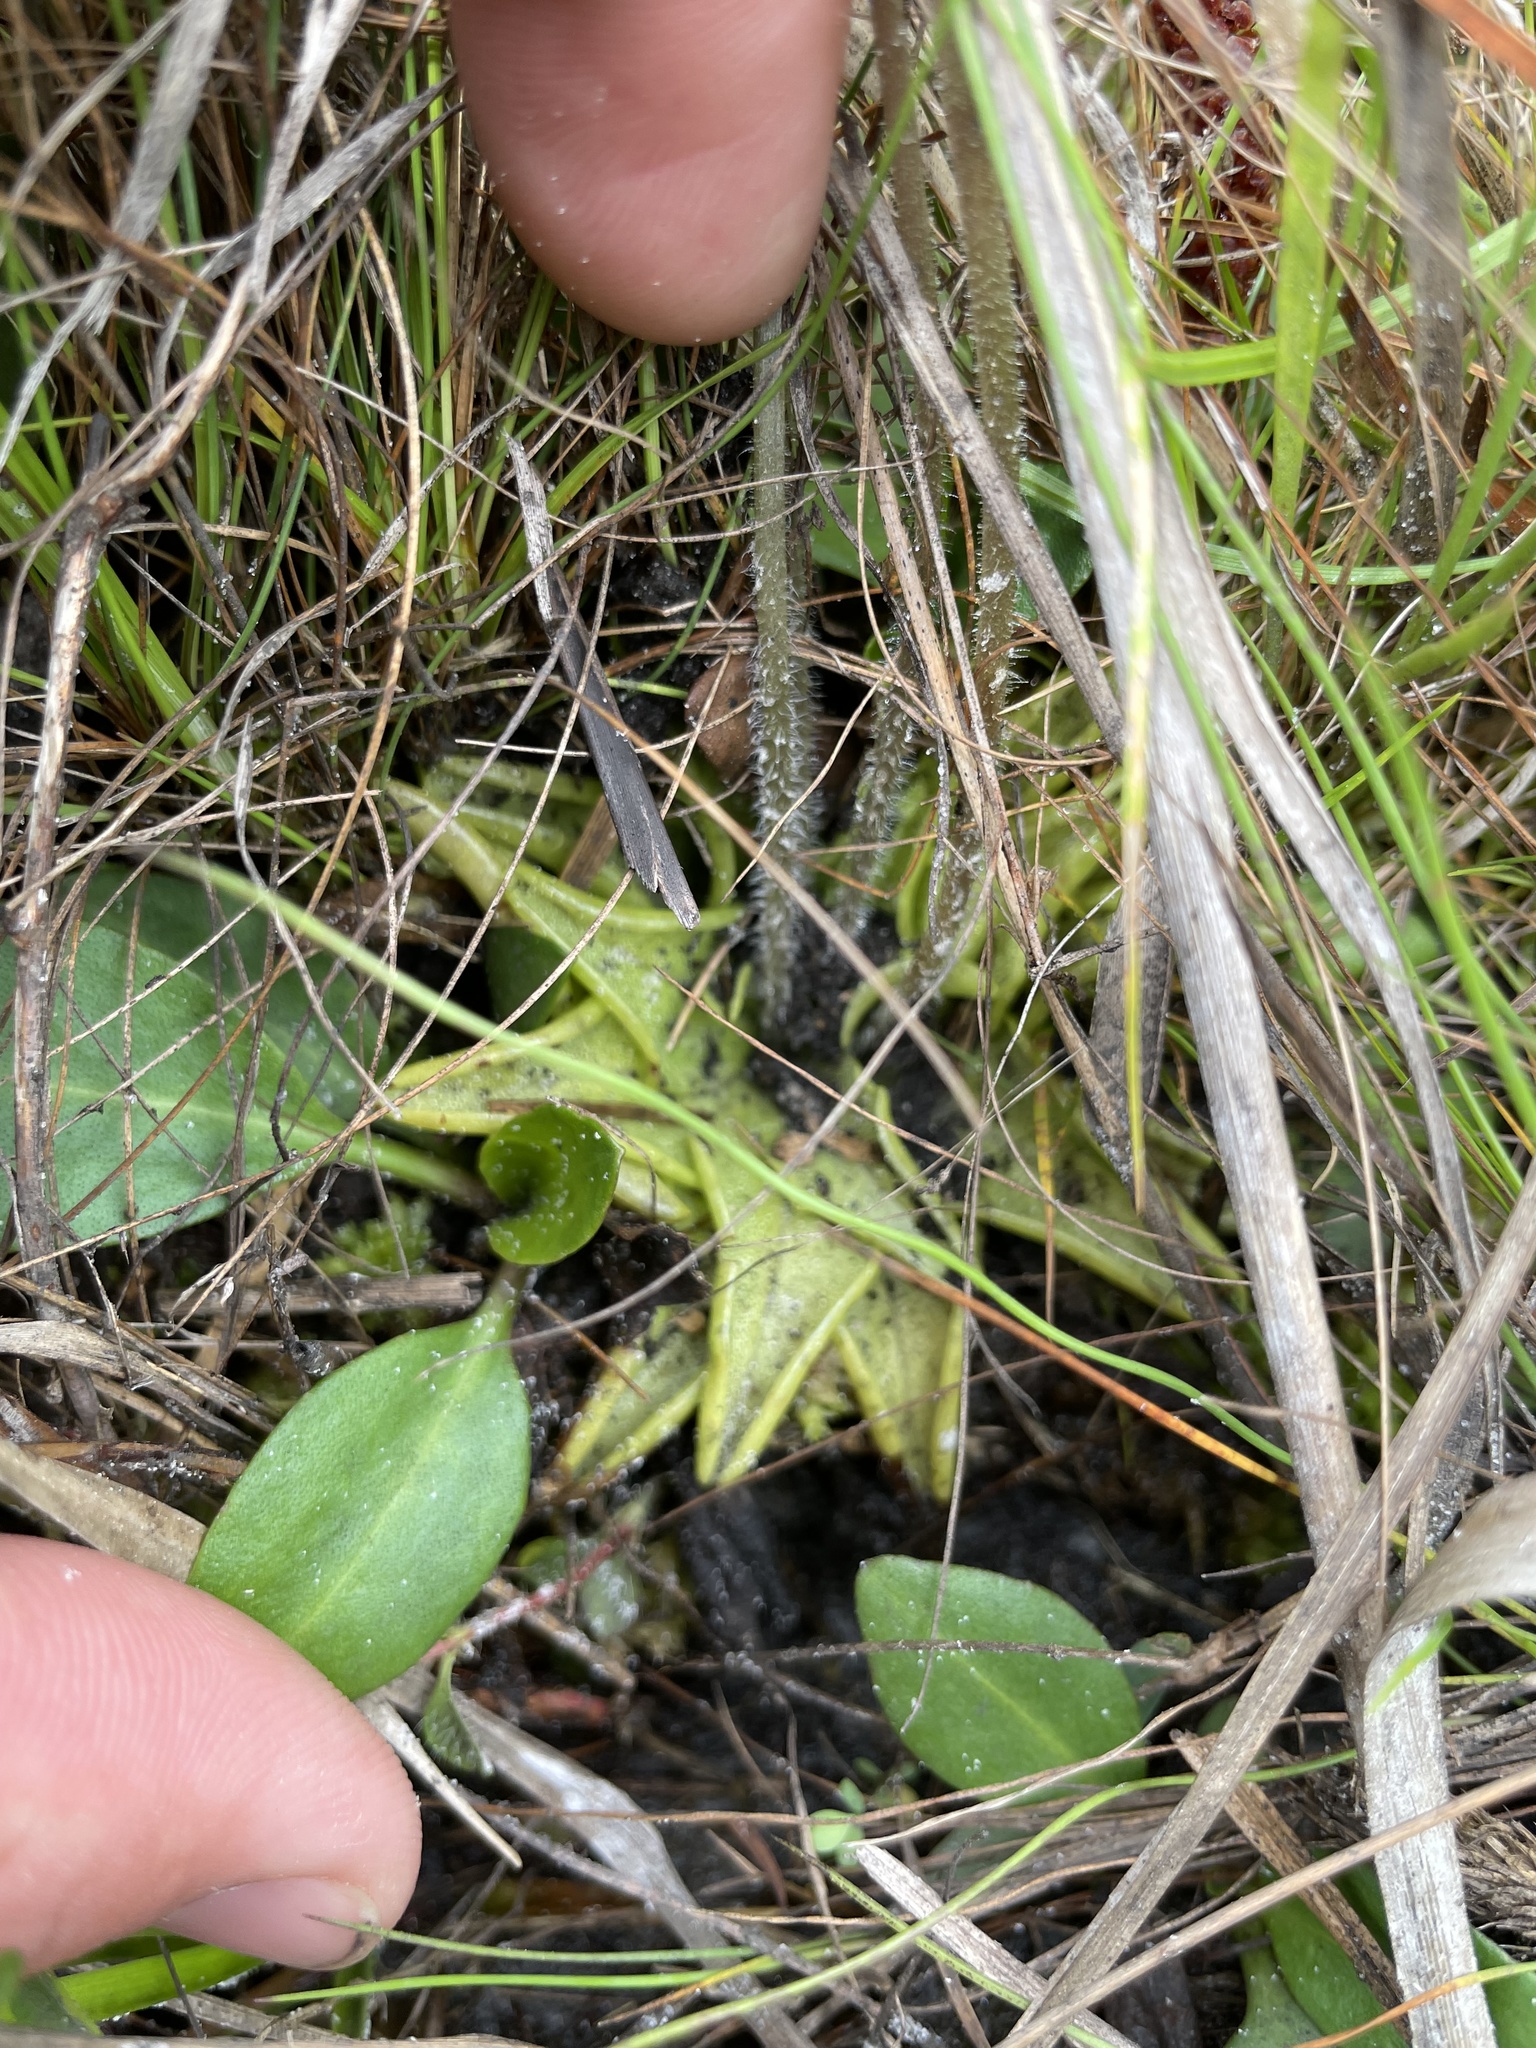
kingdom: Plantae
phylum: Tracheophyta
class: Magnoliopsida
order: Lamiales
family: Lentibulariaceae
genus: Pinguicula
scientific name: Pinguicula caerulea
